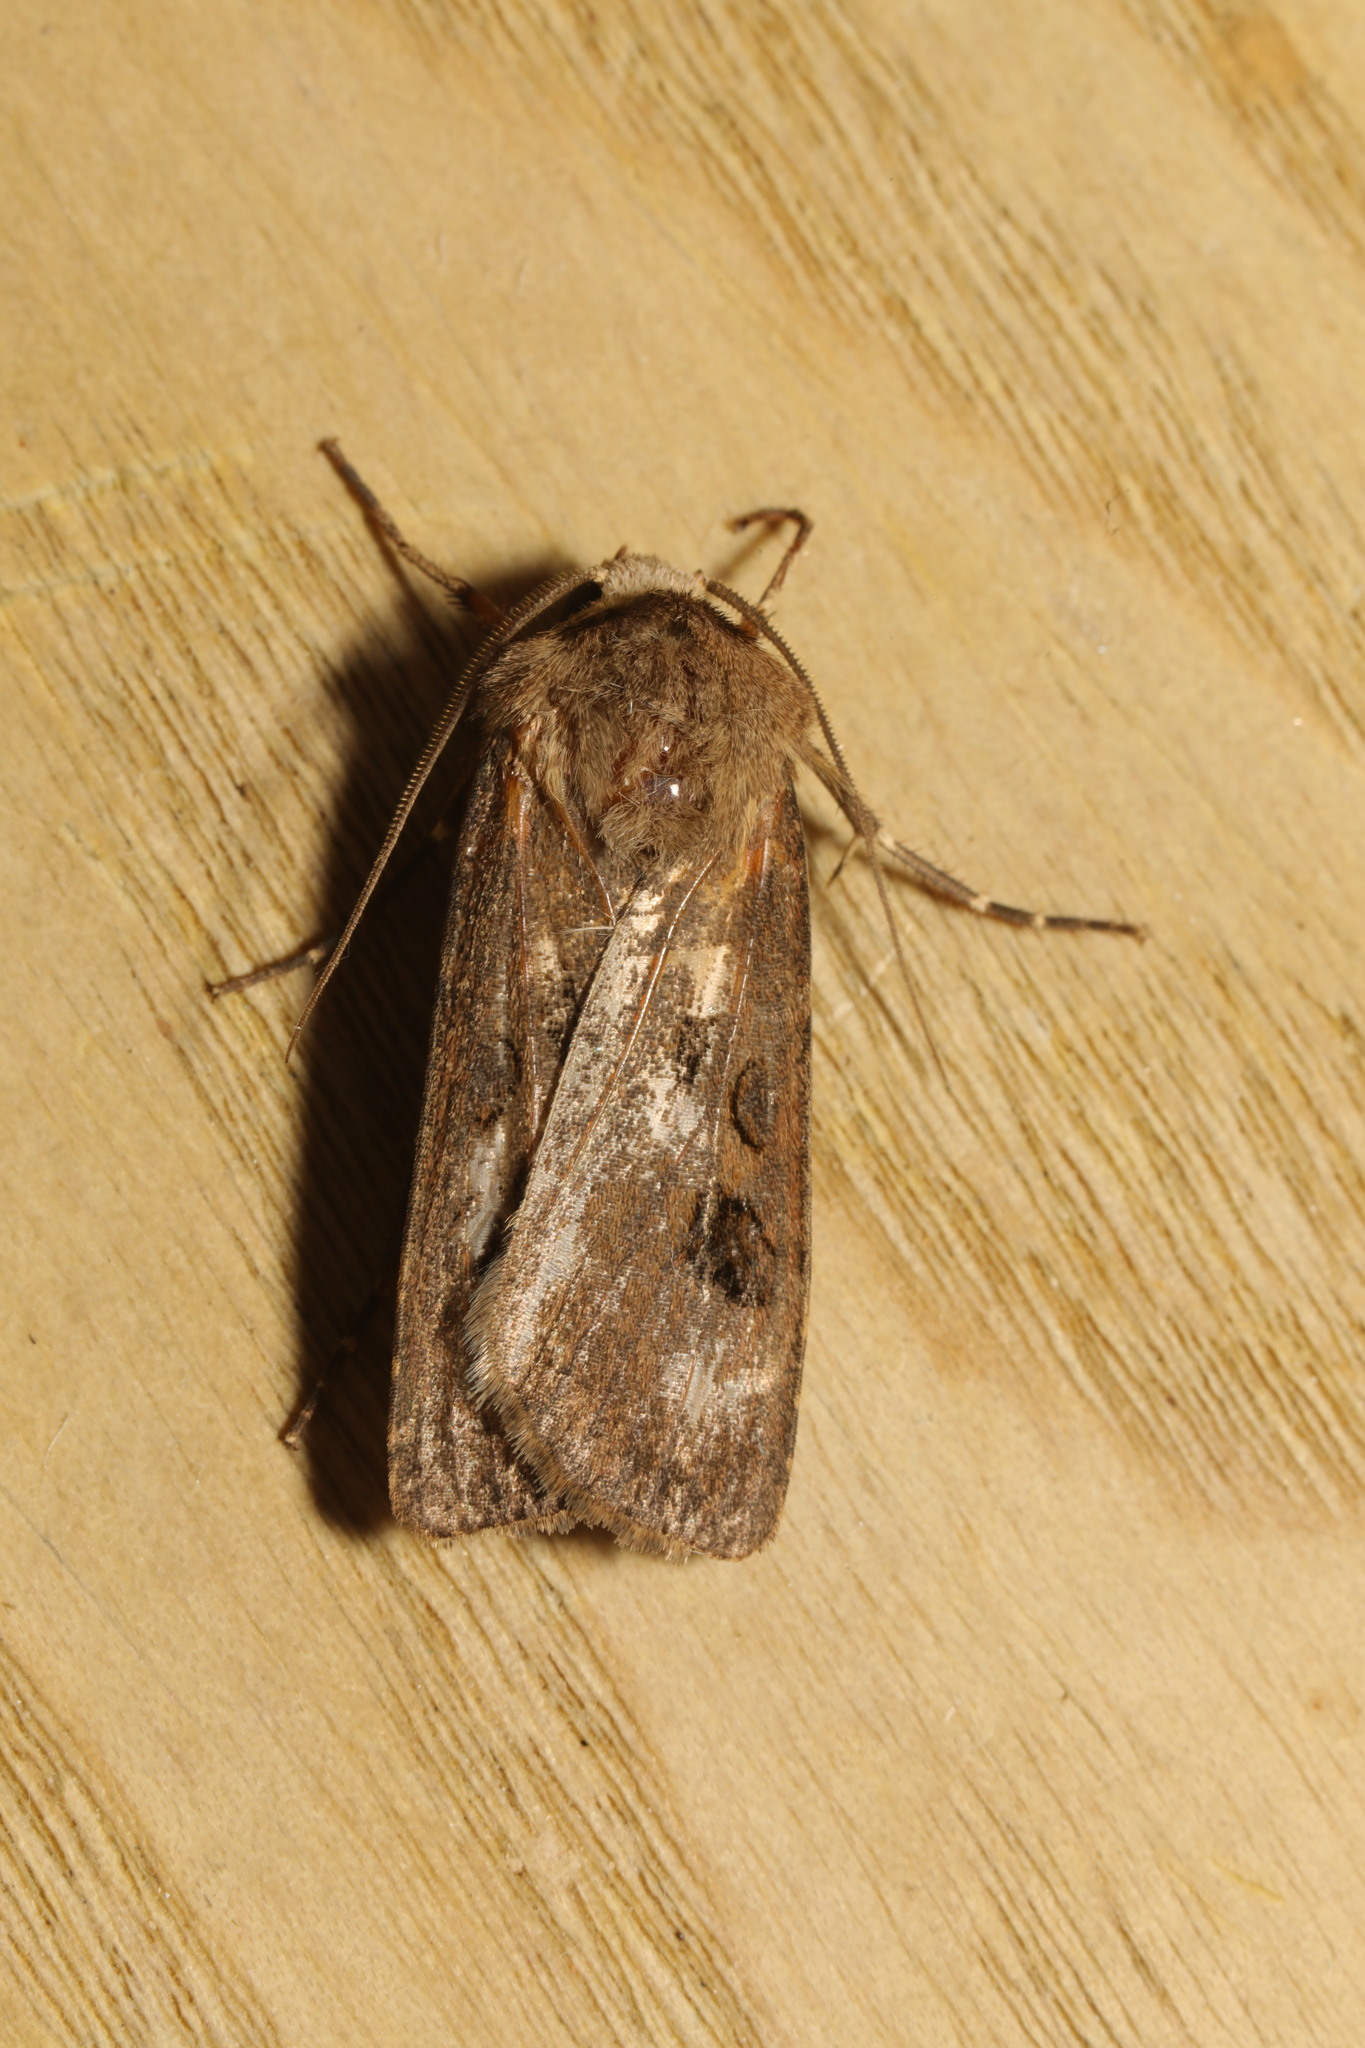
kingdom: Animalia
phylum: Arthropoda
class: Insecta
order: Lepidoptera
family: Noctuidae
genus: Agrotis
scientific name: Agrotis exclamationis
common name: Heart and dart
